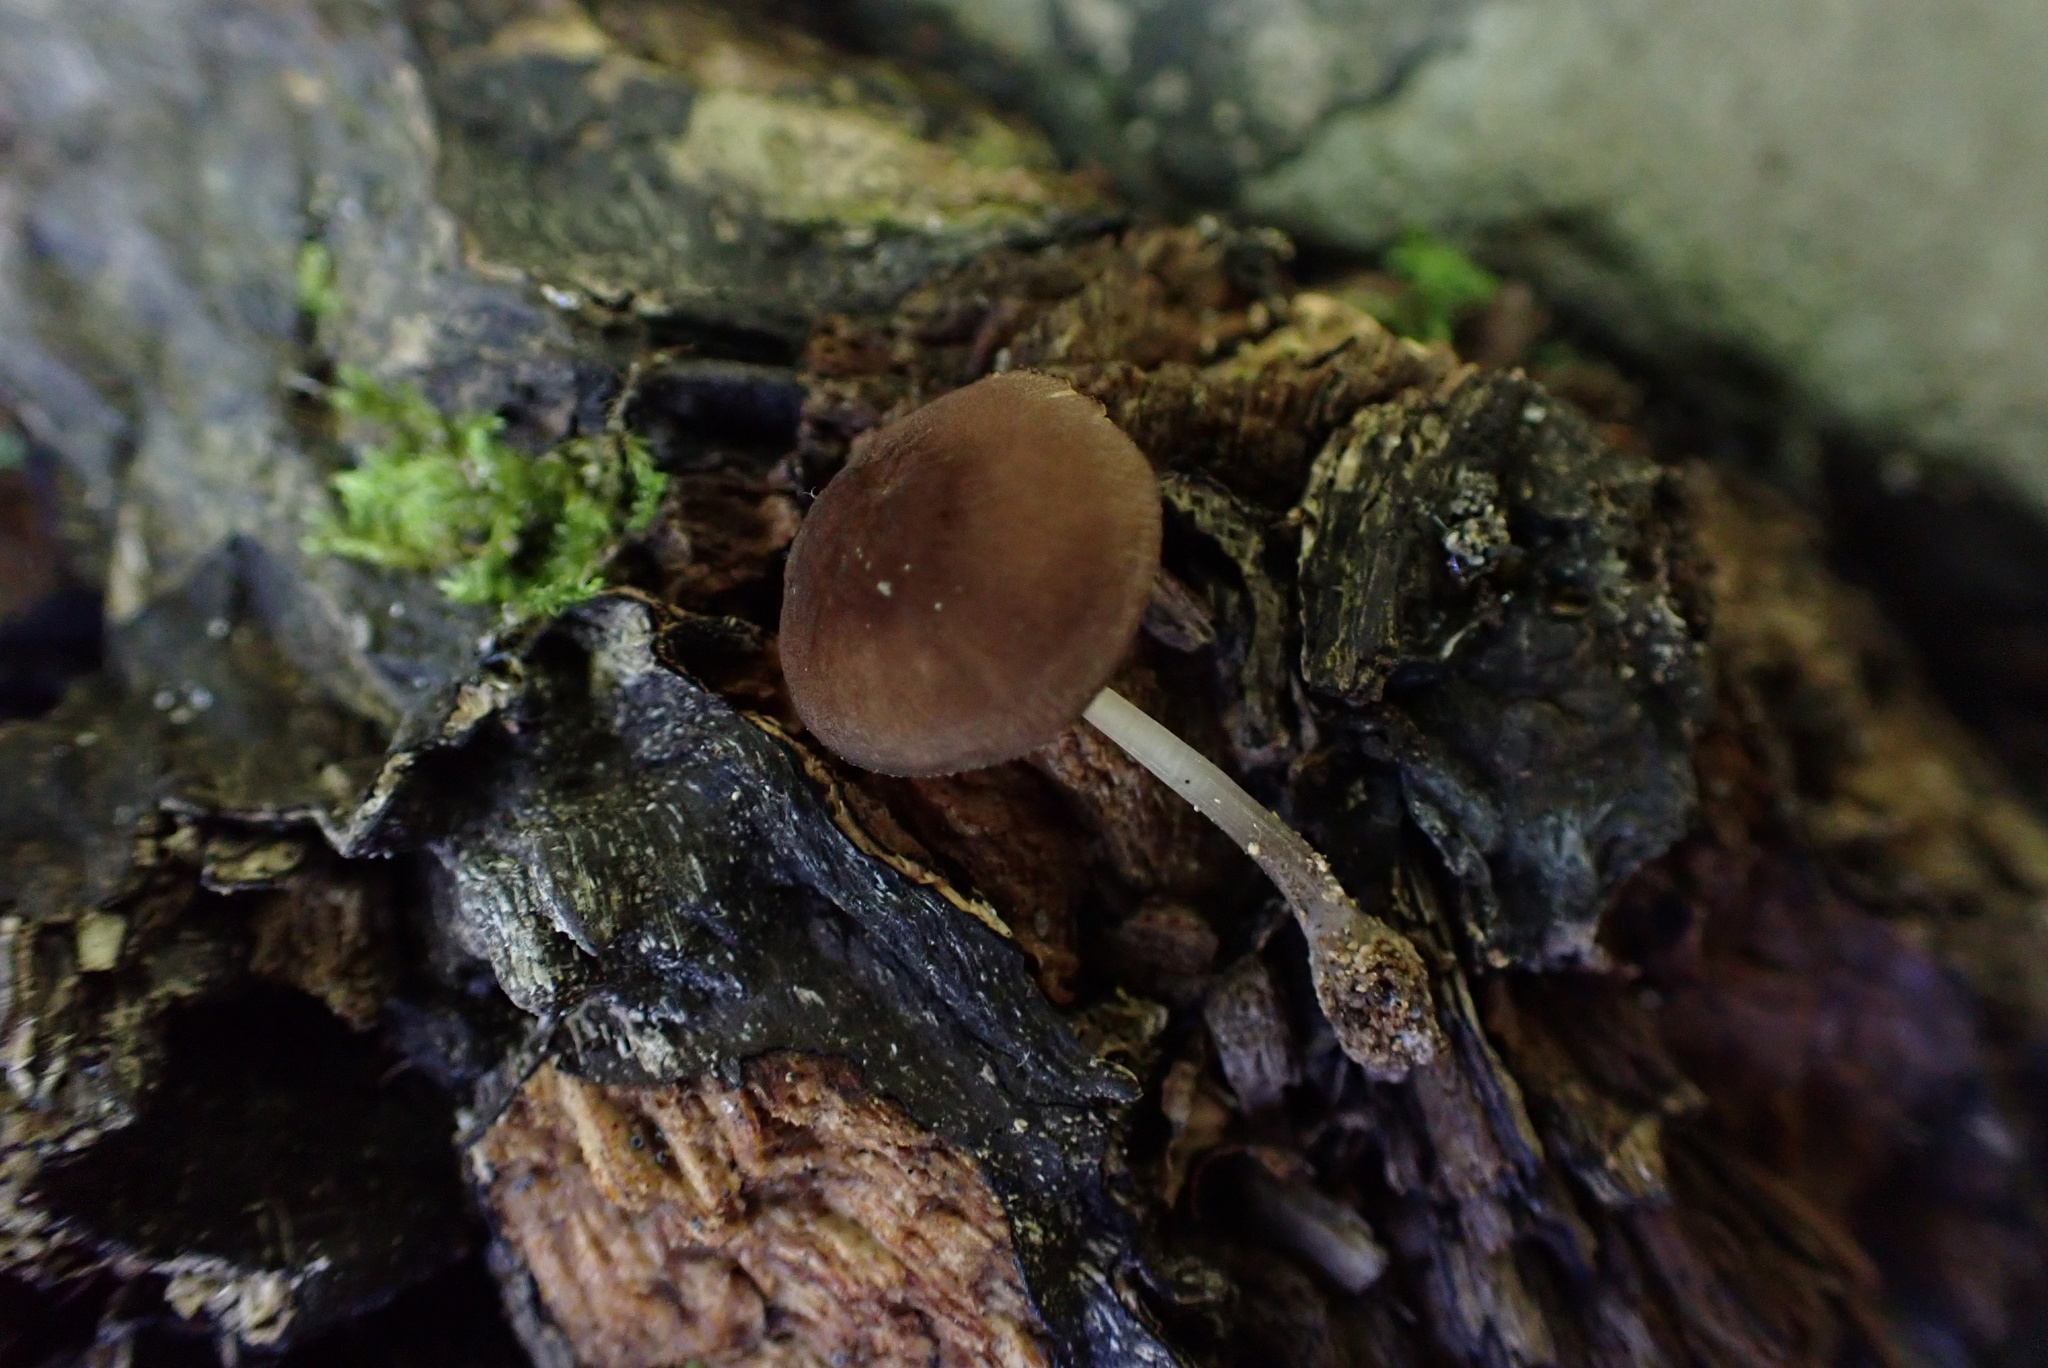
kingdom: Fungi
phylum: Basidiomycota
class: Agaricomycetes
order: Agaricales
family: Pluteaceae
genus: Pluteus
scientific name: Pluteus podospileus
